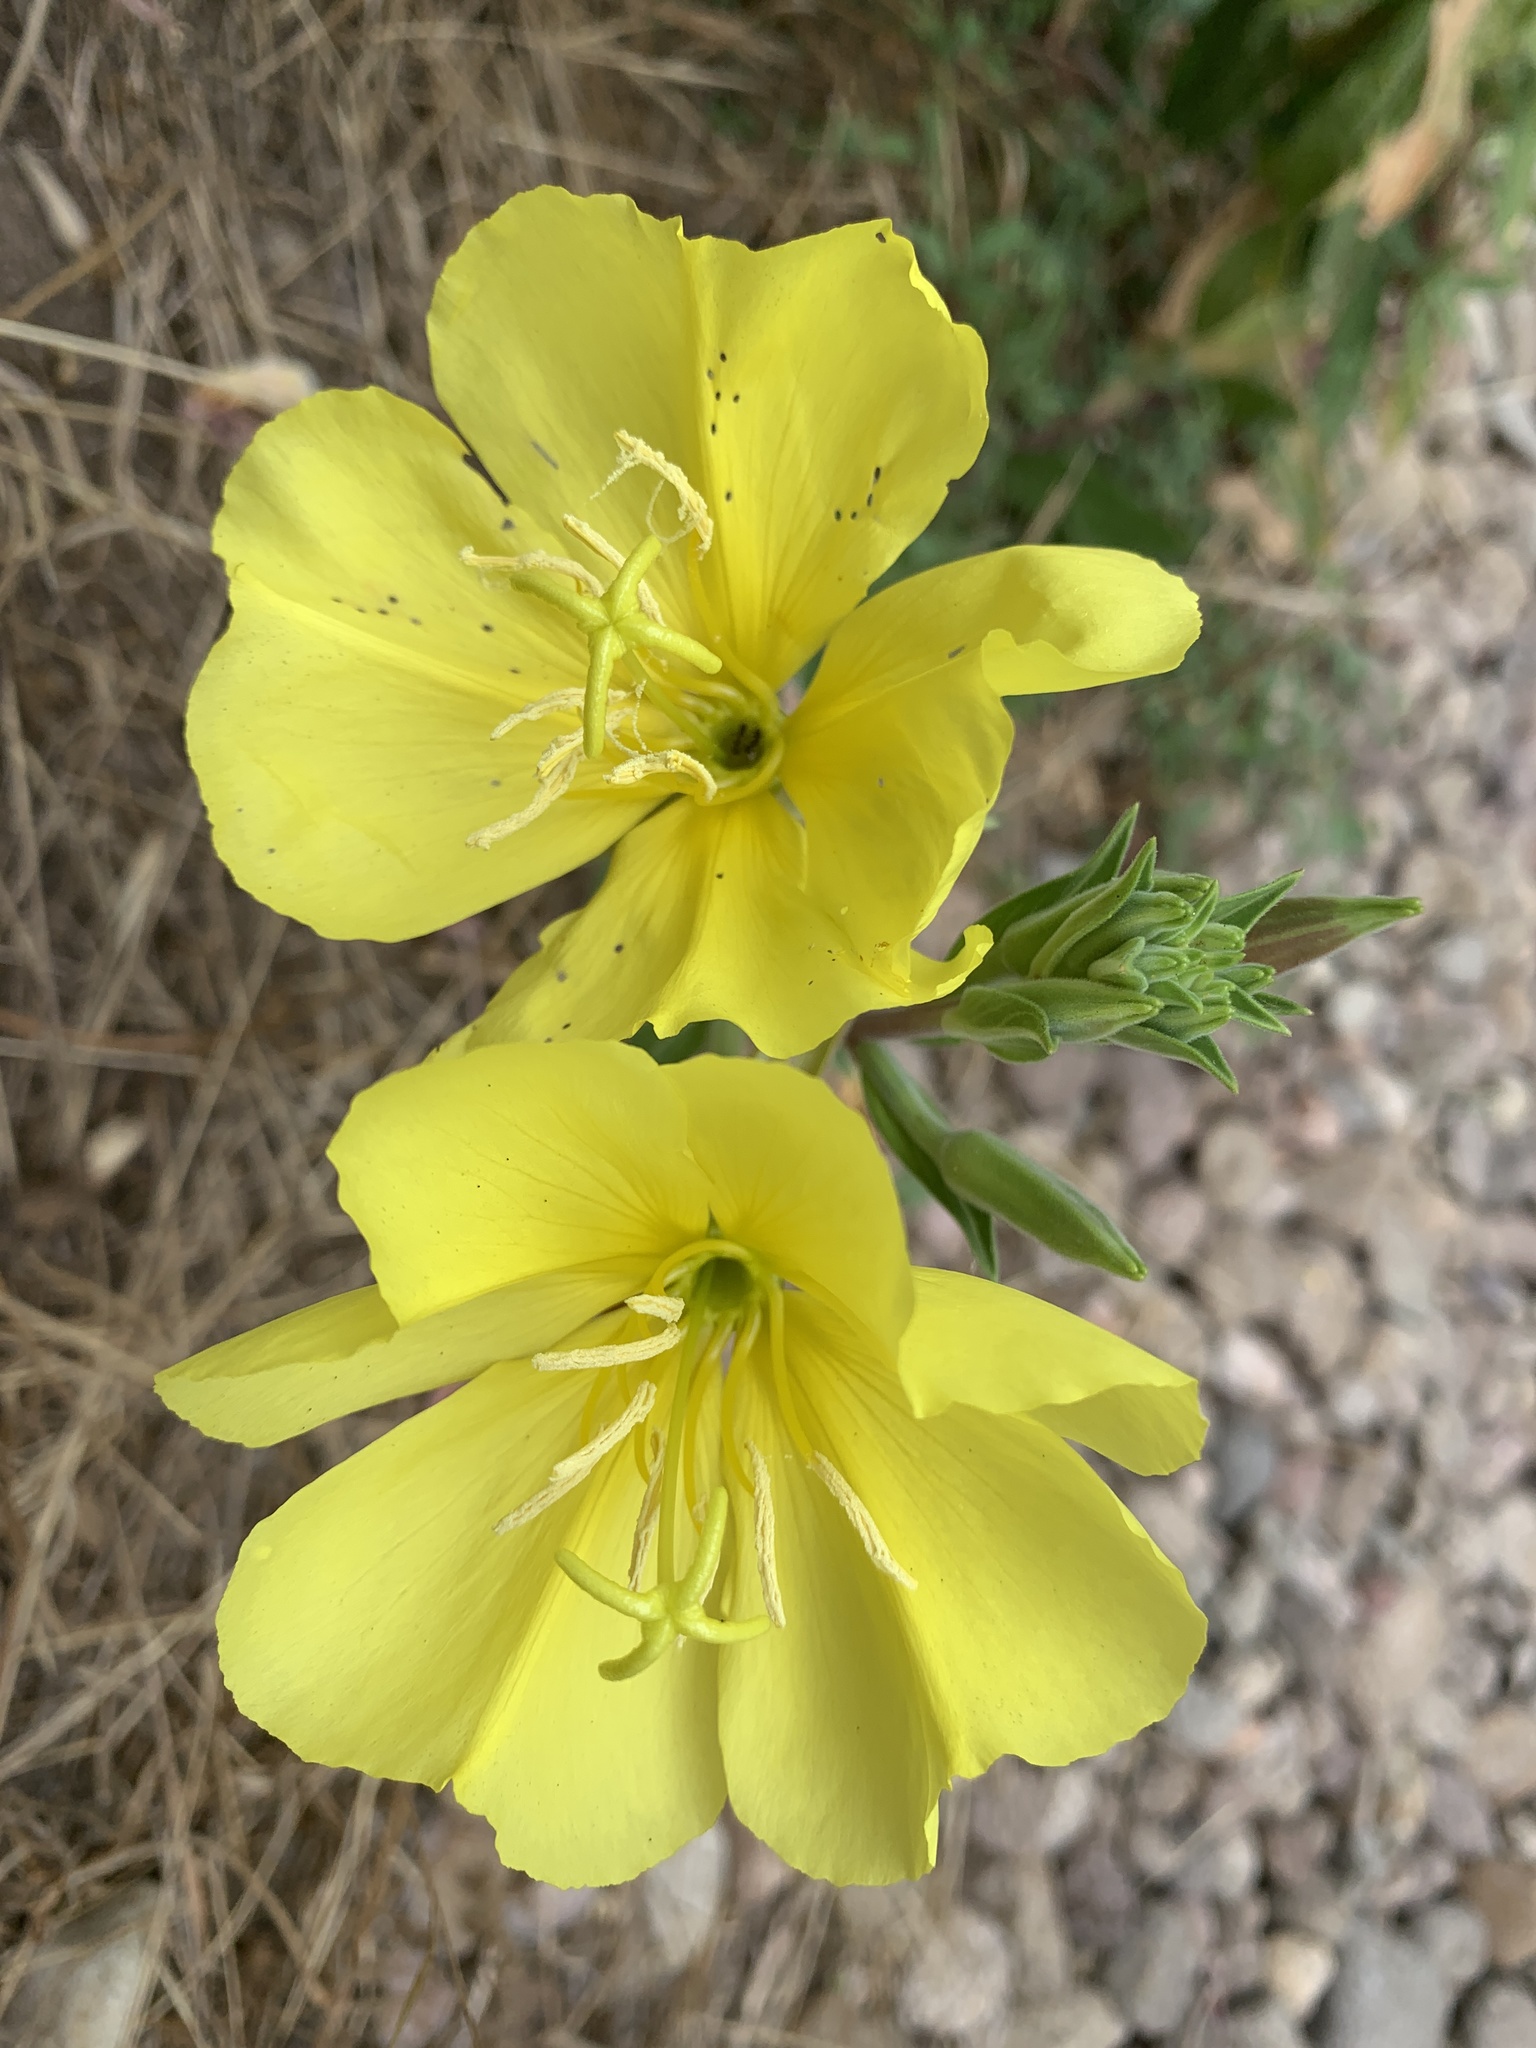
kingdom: Plantae
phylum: Tracheophyta
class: Magnoliopsida
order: Myrtales
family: Onagraceae
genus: Oenothera
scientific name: Oenothera elata
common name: Hooker's evening-primrose
